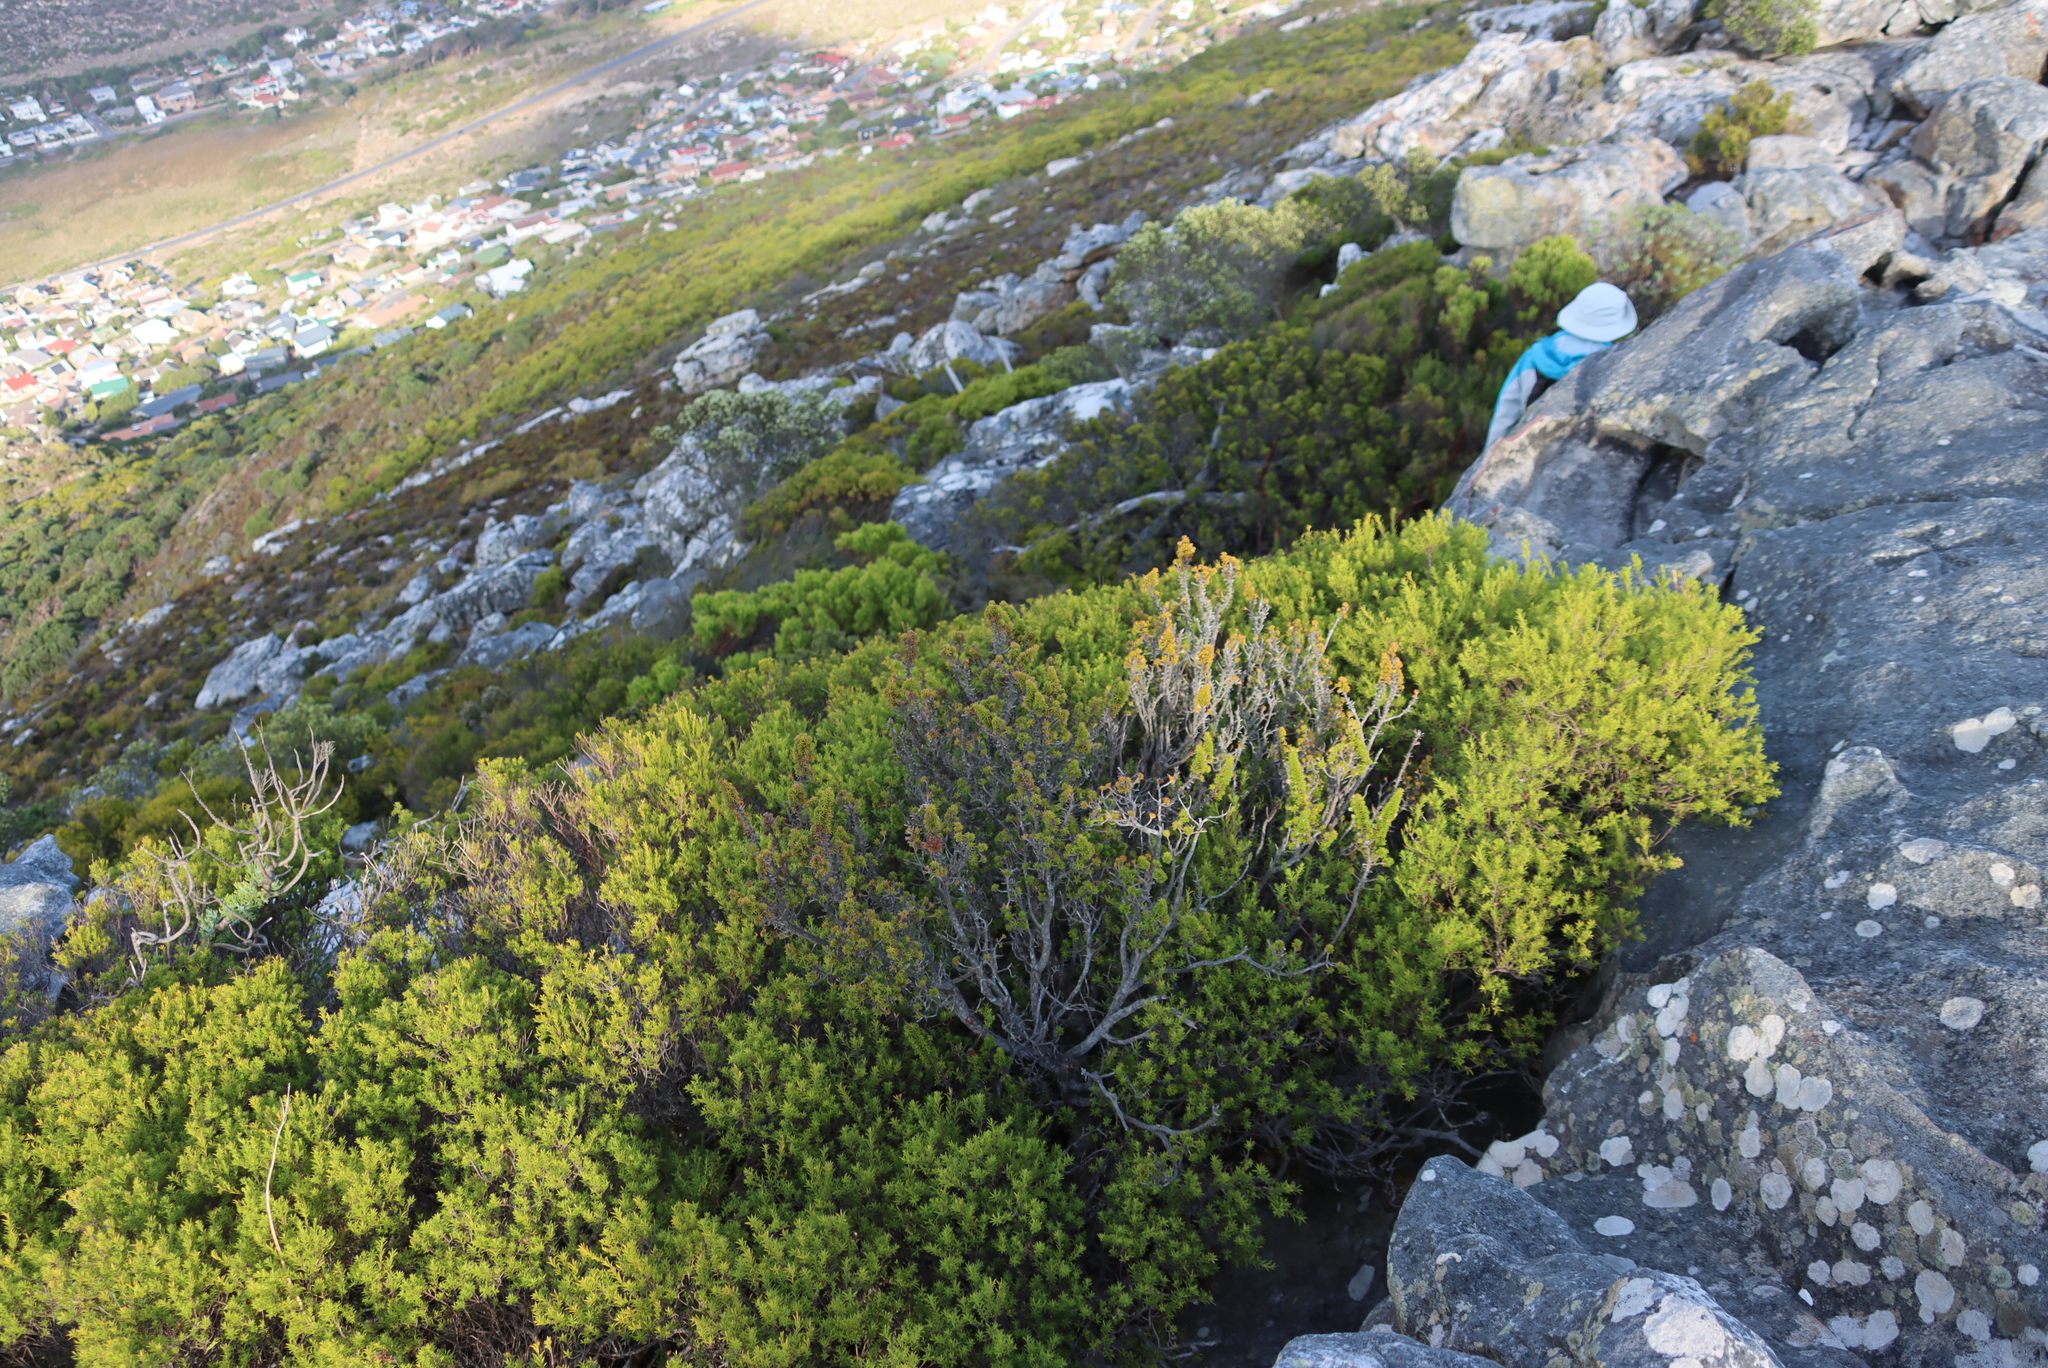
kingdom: Plantae
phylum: Tracheophyta
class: Magnoliopsida
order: Sapindales
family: Rutaceae
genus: Coleonema
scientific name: Coleonema album
